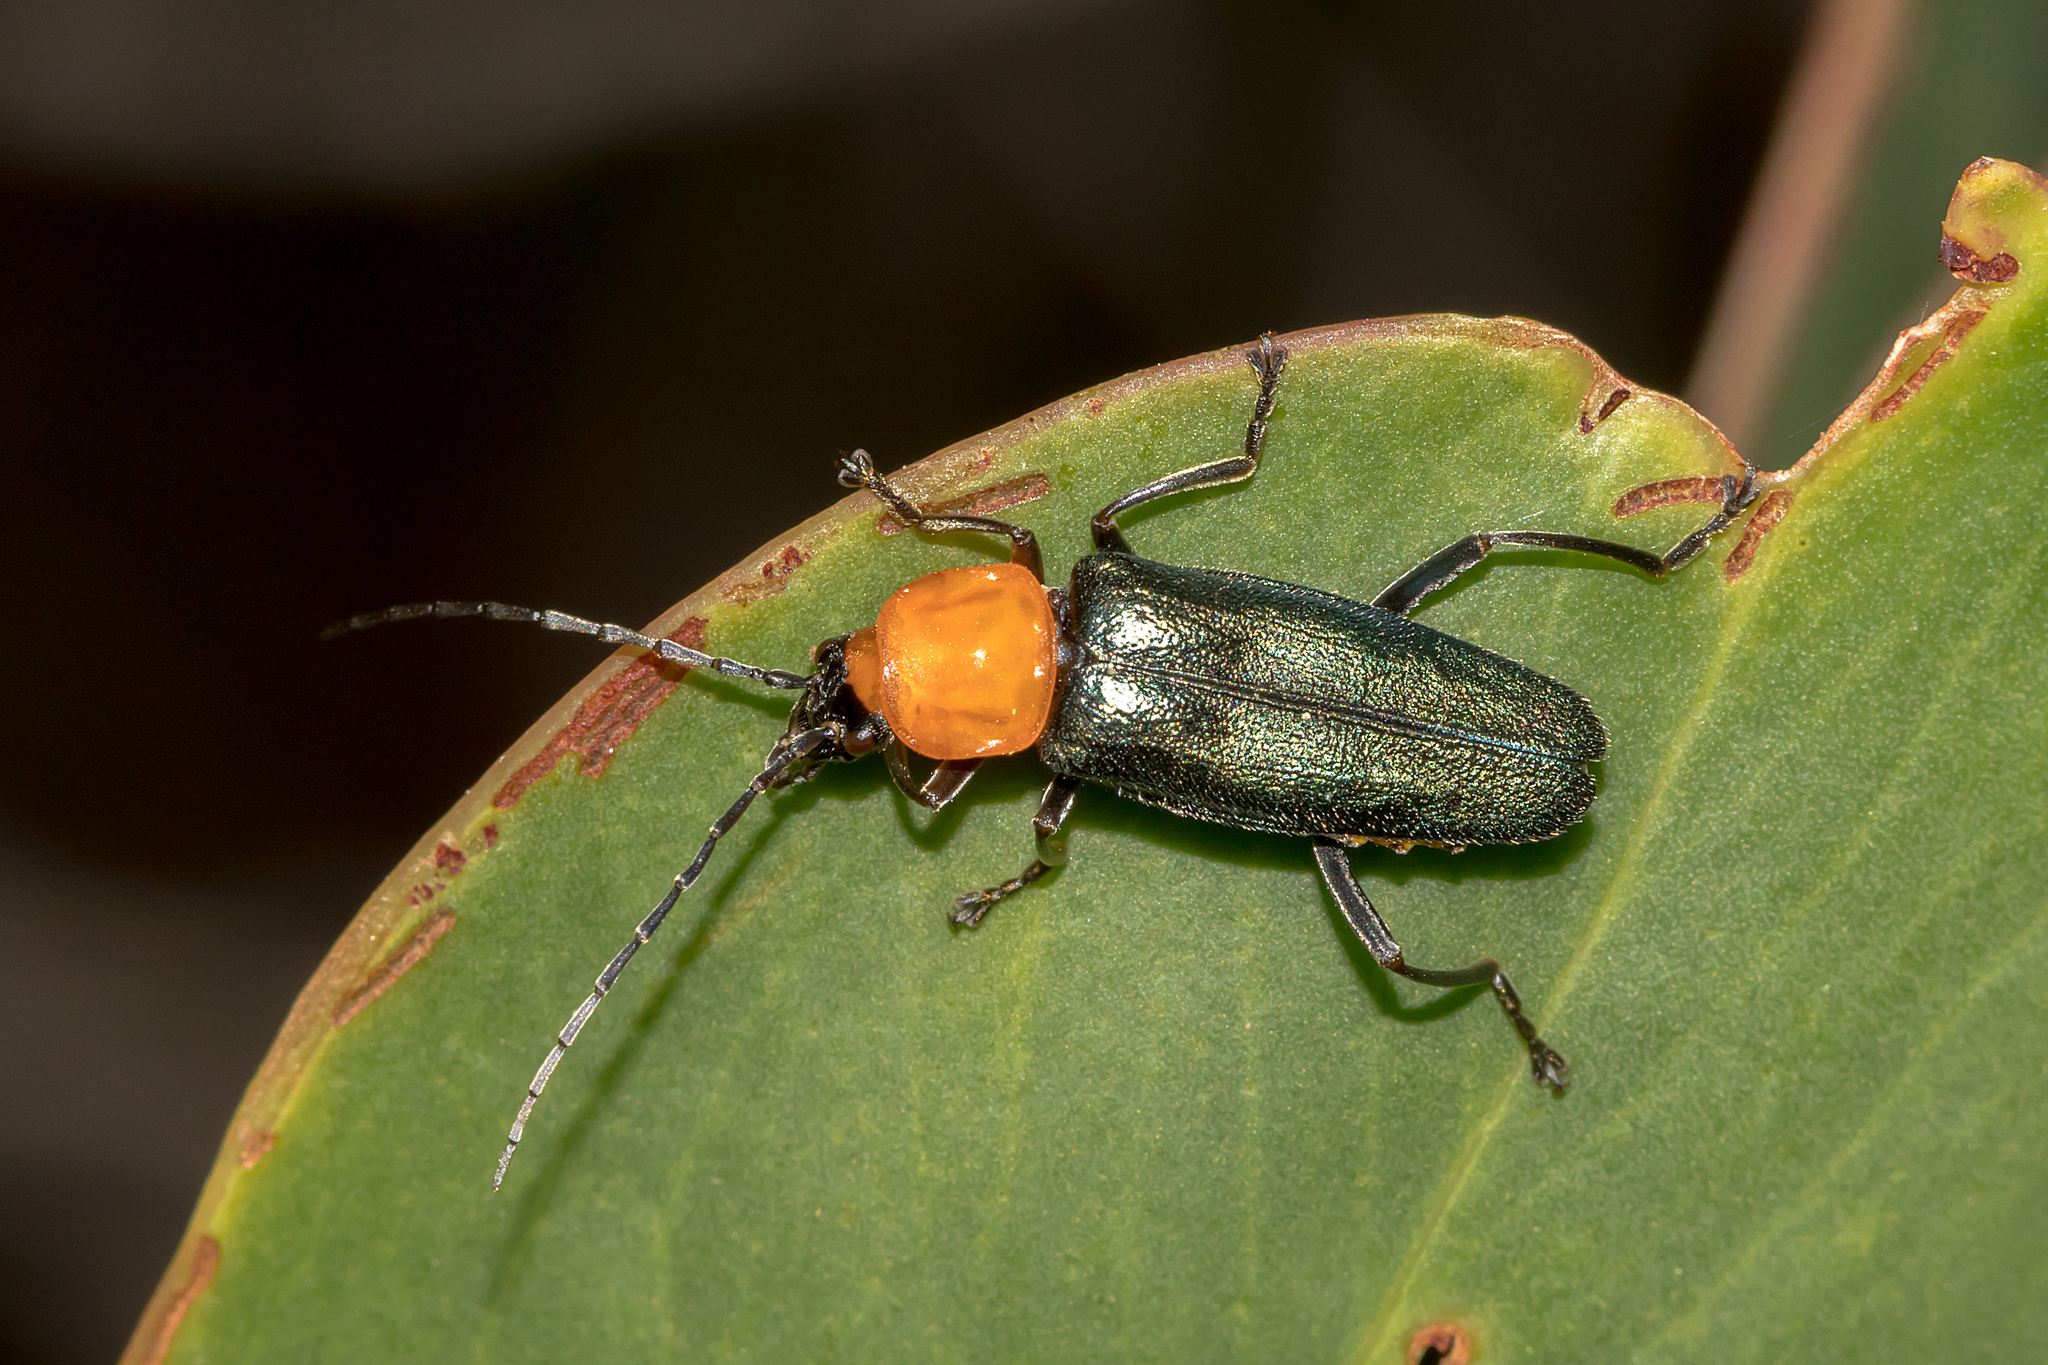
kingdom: Animalia
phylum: Arthropoda
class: Insecta
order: Coleoptera
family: Cantharidae
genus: Chauliognathus
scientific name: Chauliognathus
